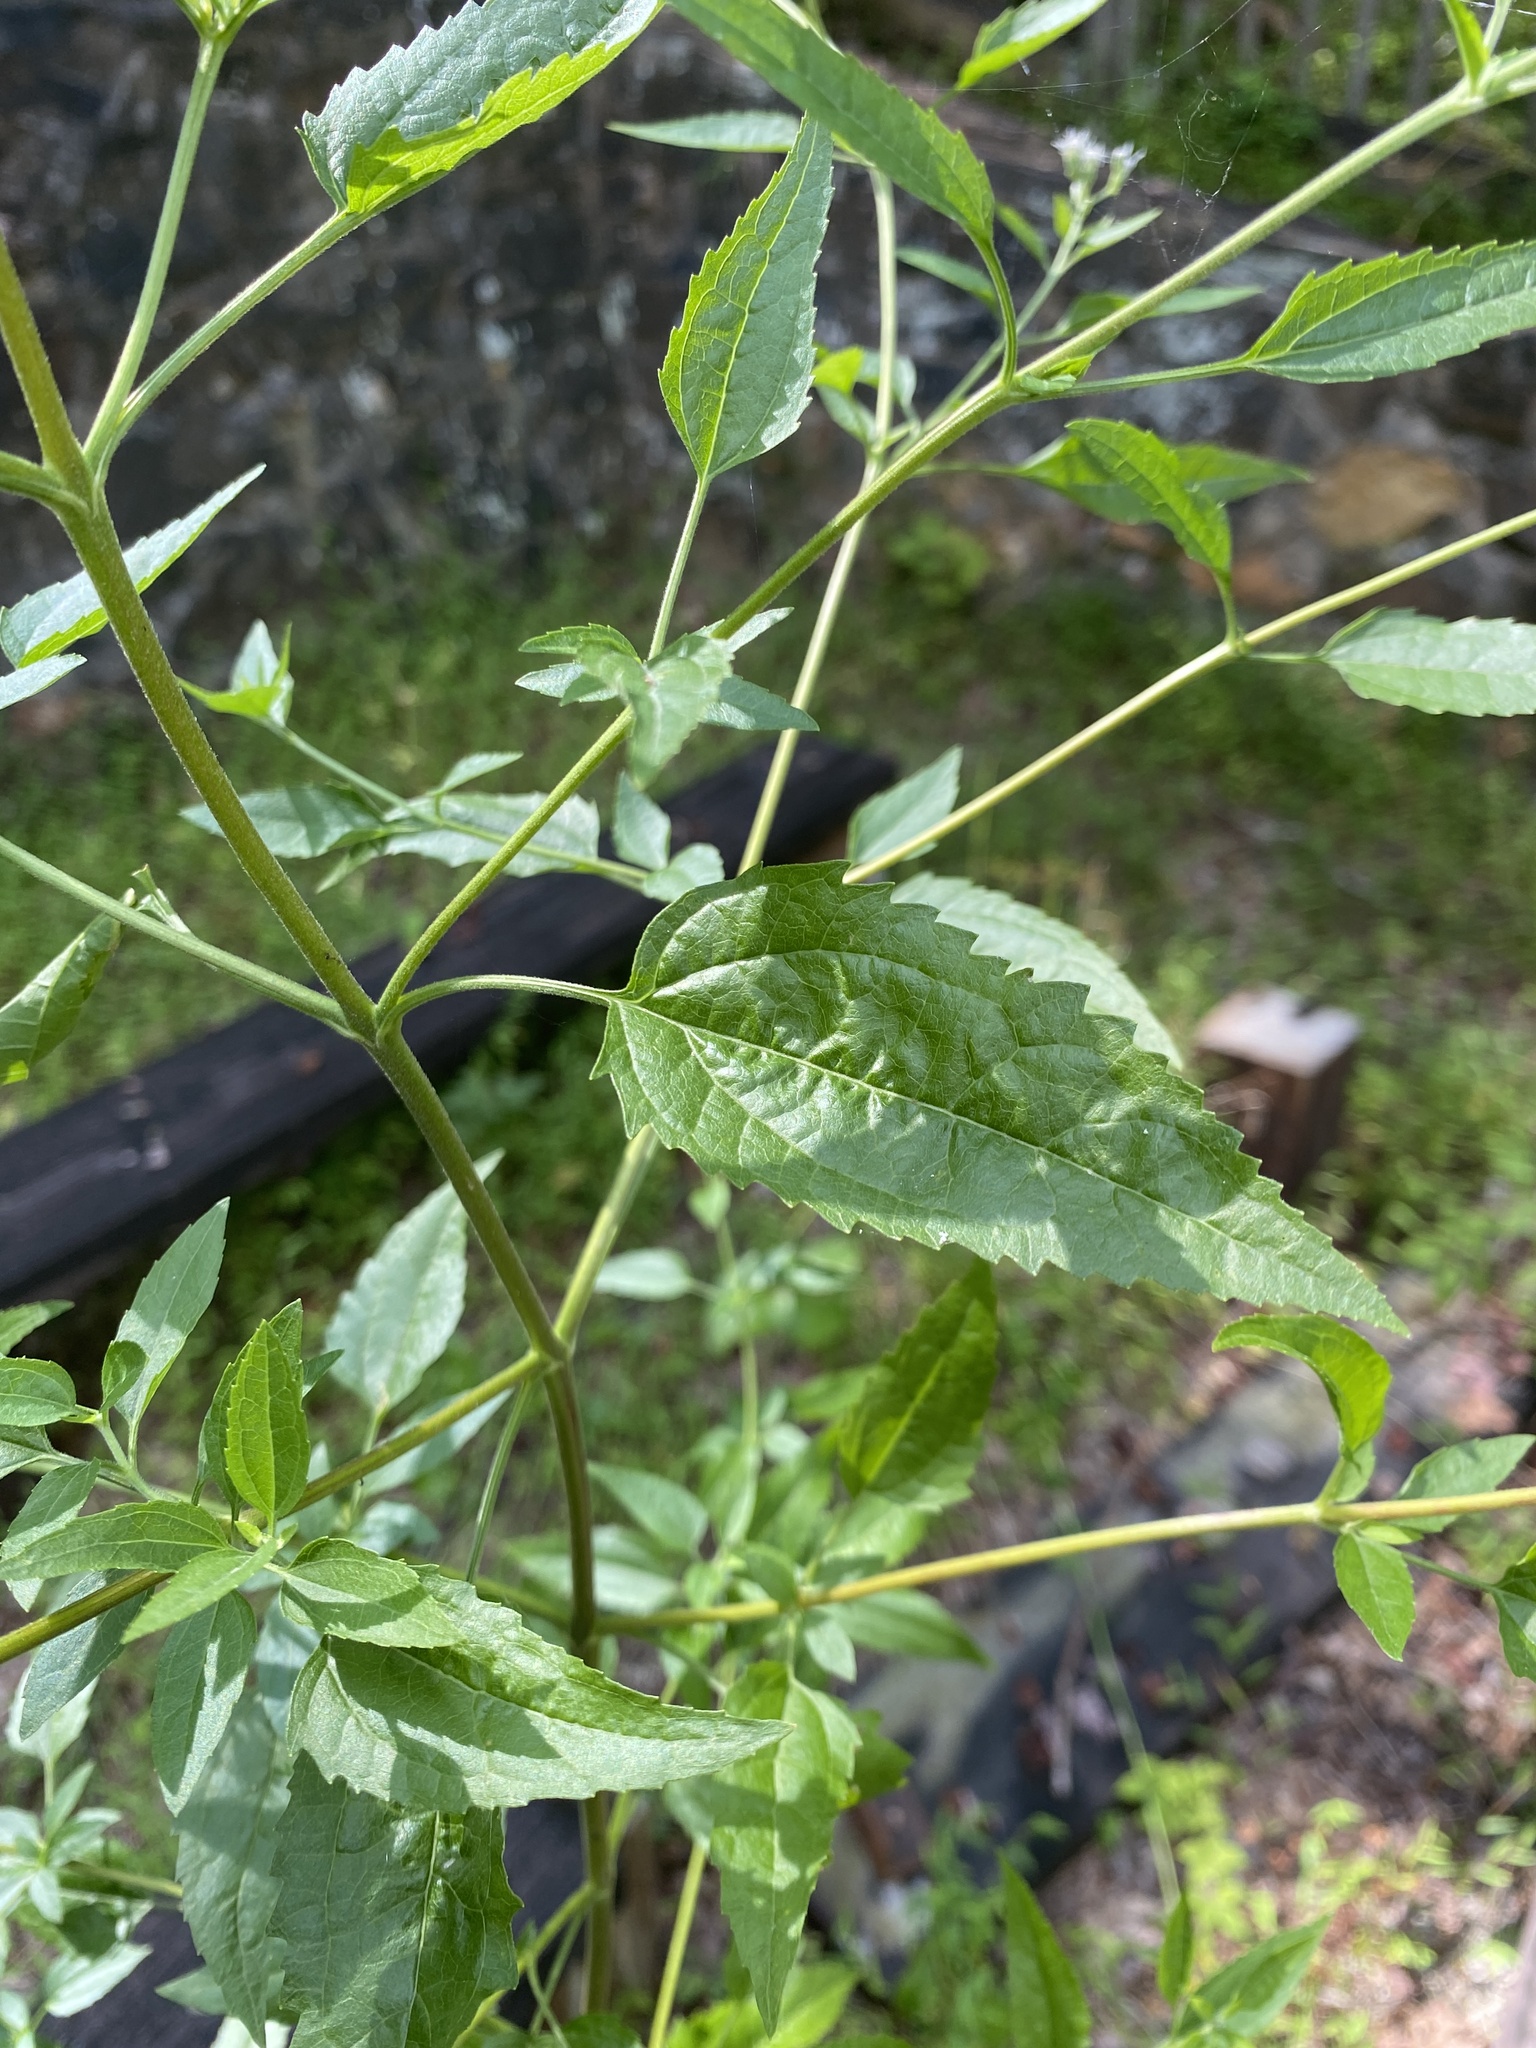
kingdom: Plantae
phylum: Tracheophyta
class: Magnoliopsida
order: Asterales
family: Asteraceae
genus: Eupatorium
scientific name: Eupatorium serotinum
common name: Late boneset
